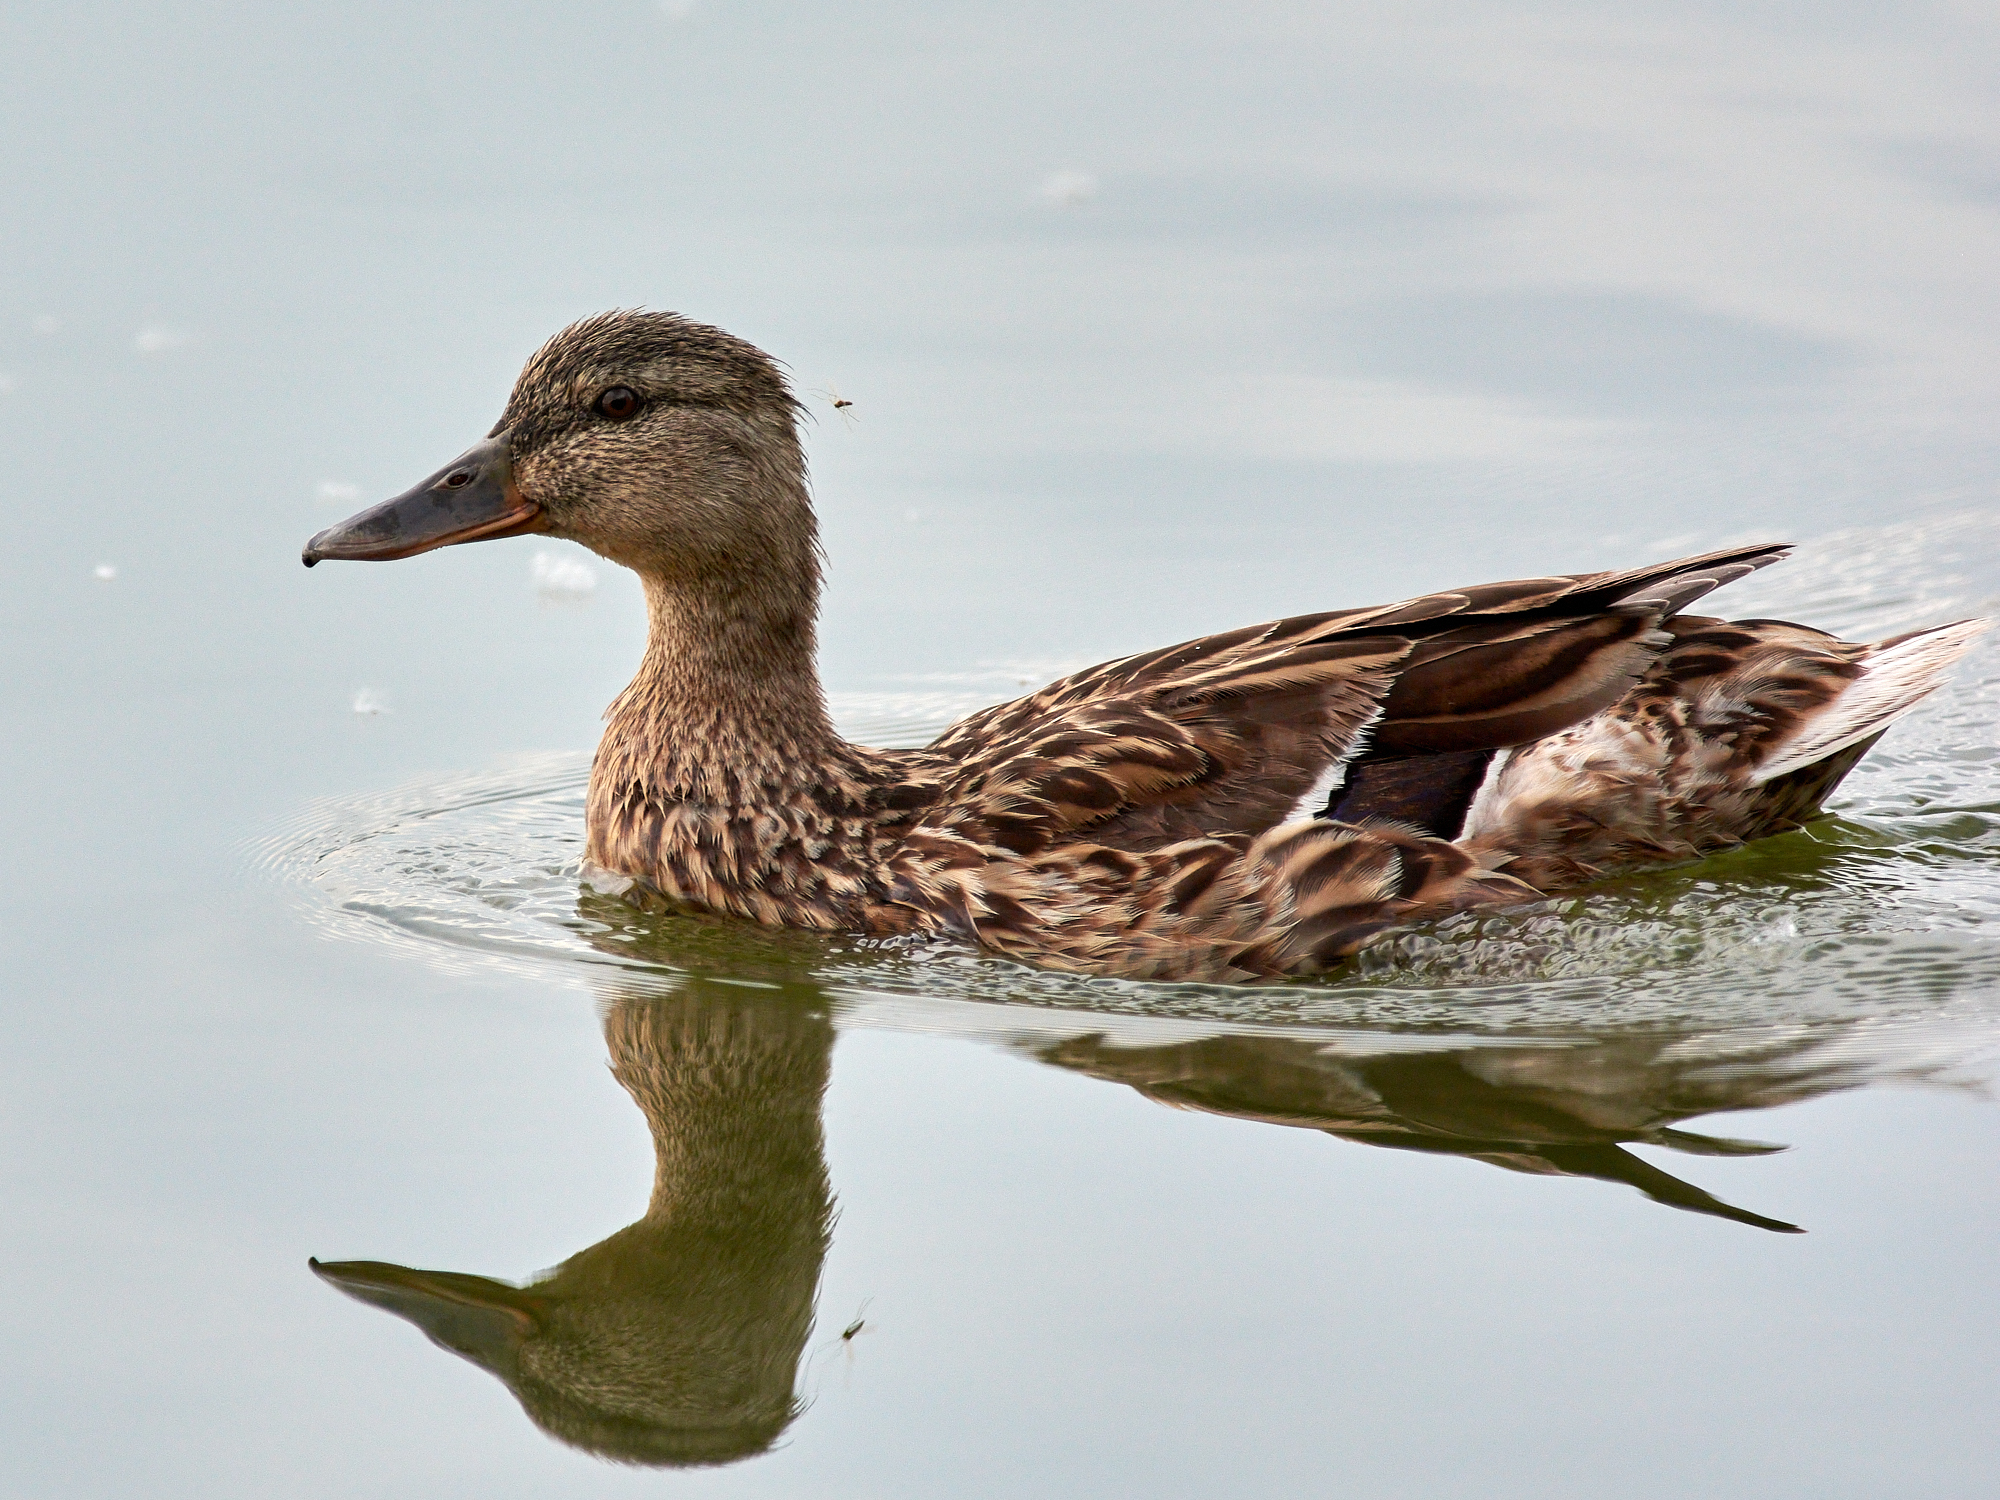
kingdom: Animalia
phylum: Chordata
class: Aves
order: Anseriformes
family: Anatidae
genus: Anas
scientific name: Anas platyrhynchos
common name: Mallard
